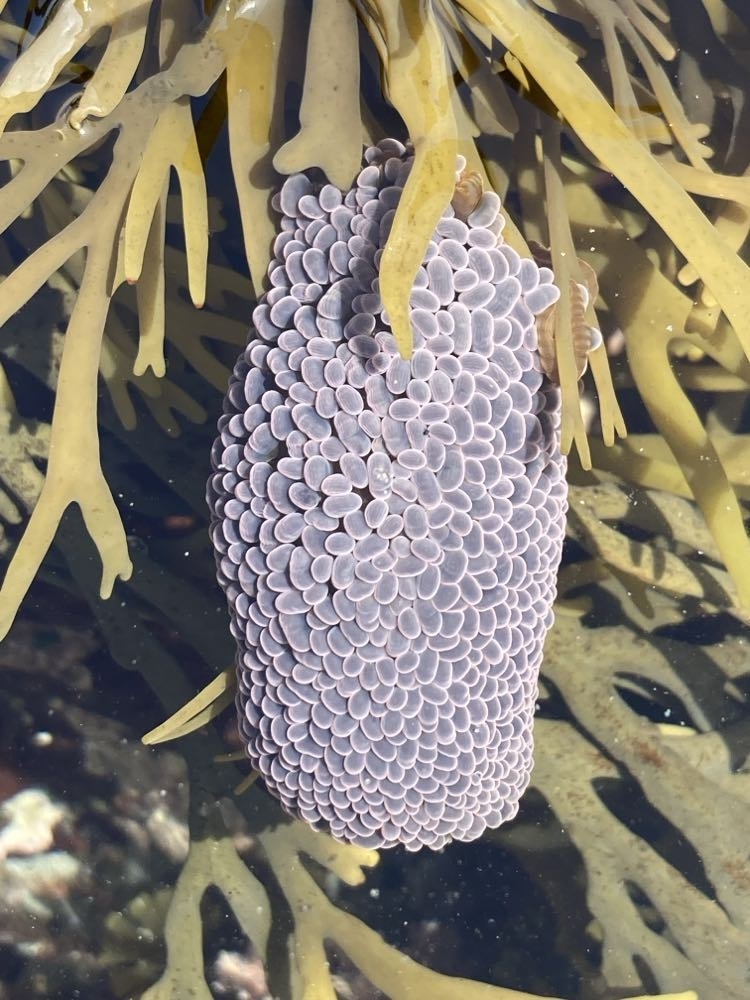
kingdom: Animalia
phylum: Cnidaria
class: Anthozoa
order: Actiniaria
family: Actiniidae
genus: Phlyctenactis
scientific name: Phlyctenactis tuberculosa
